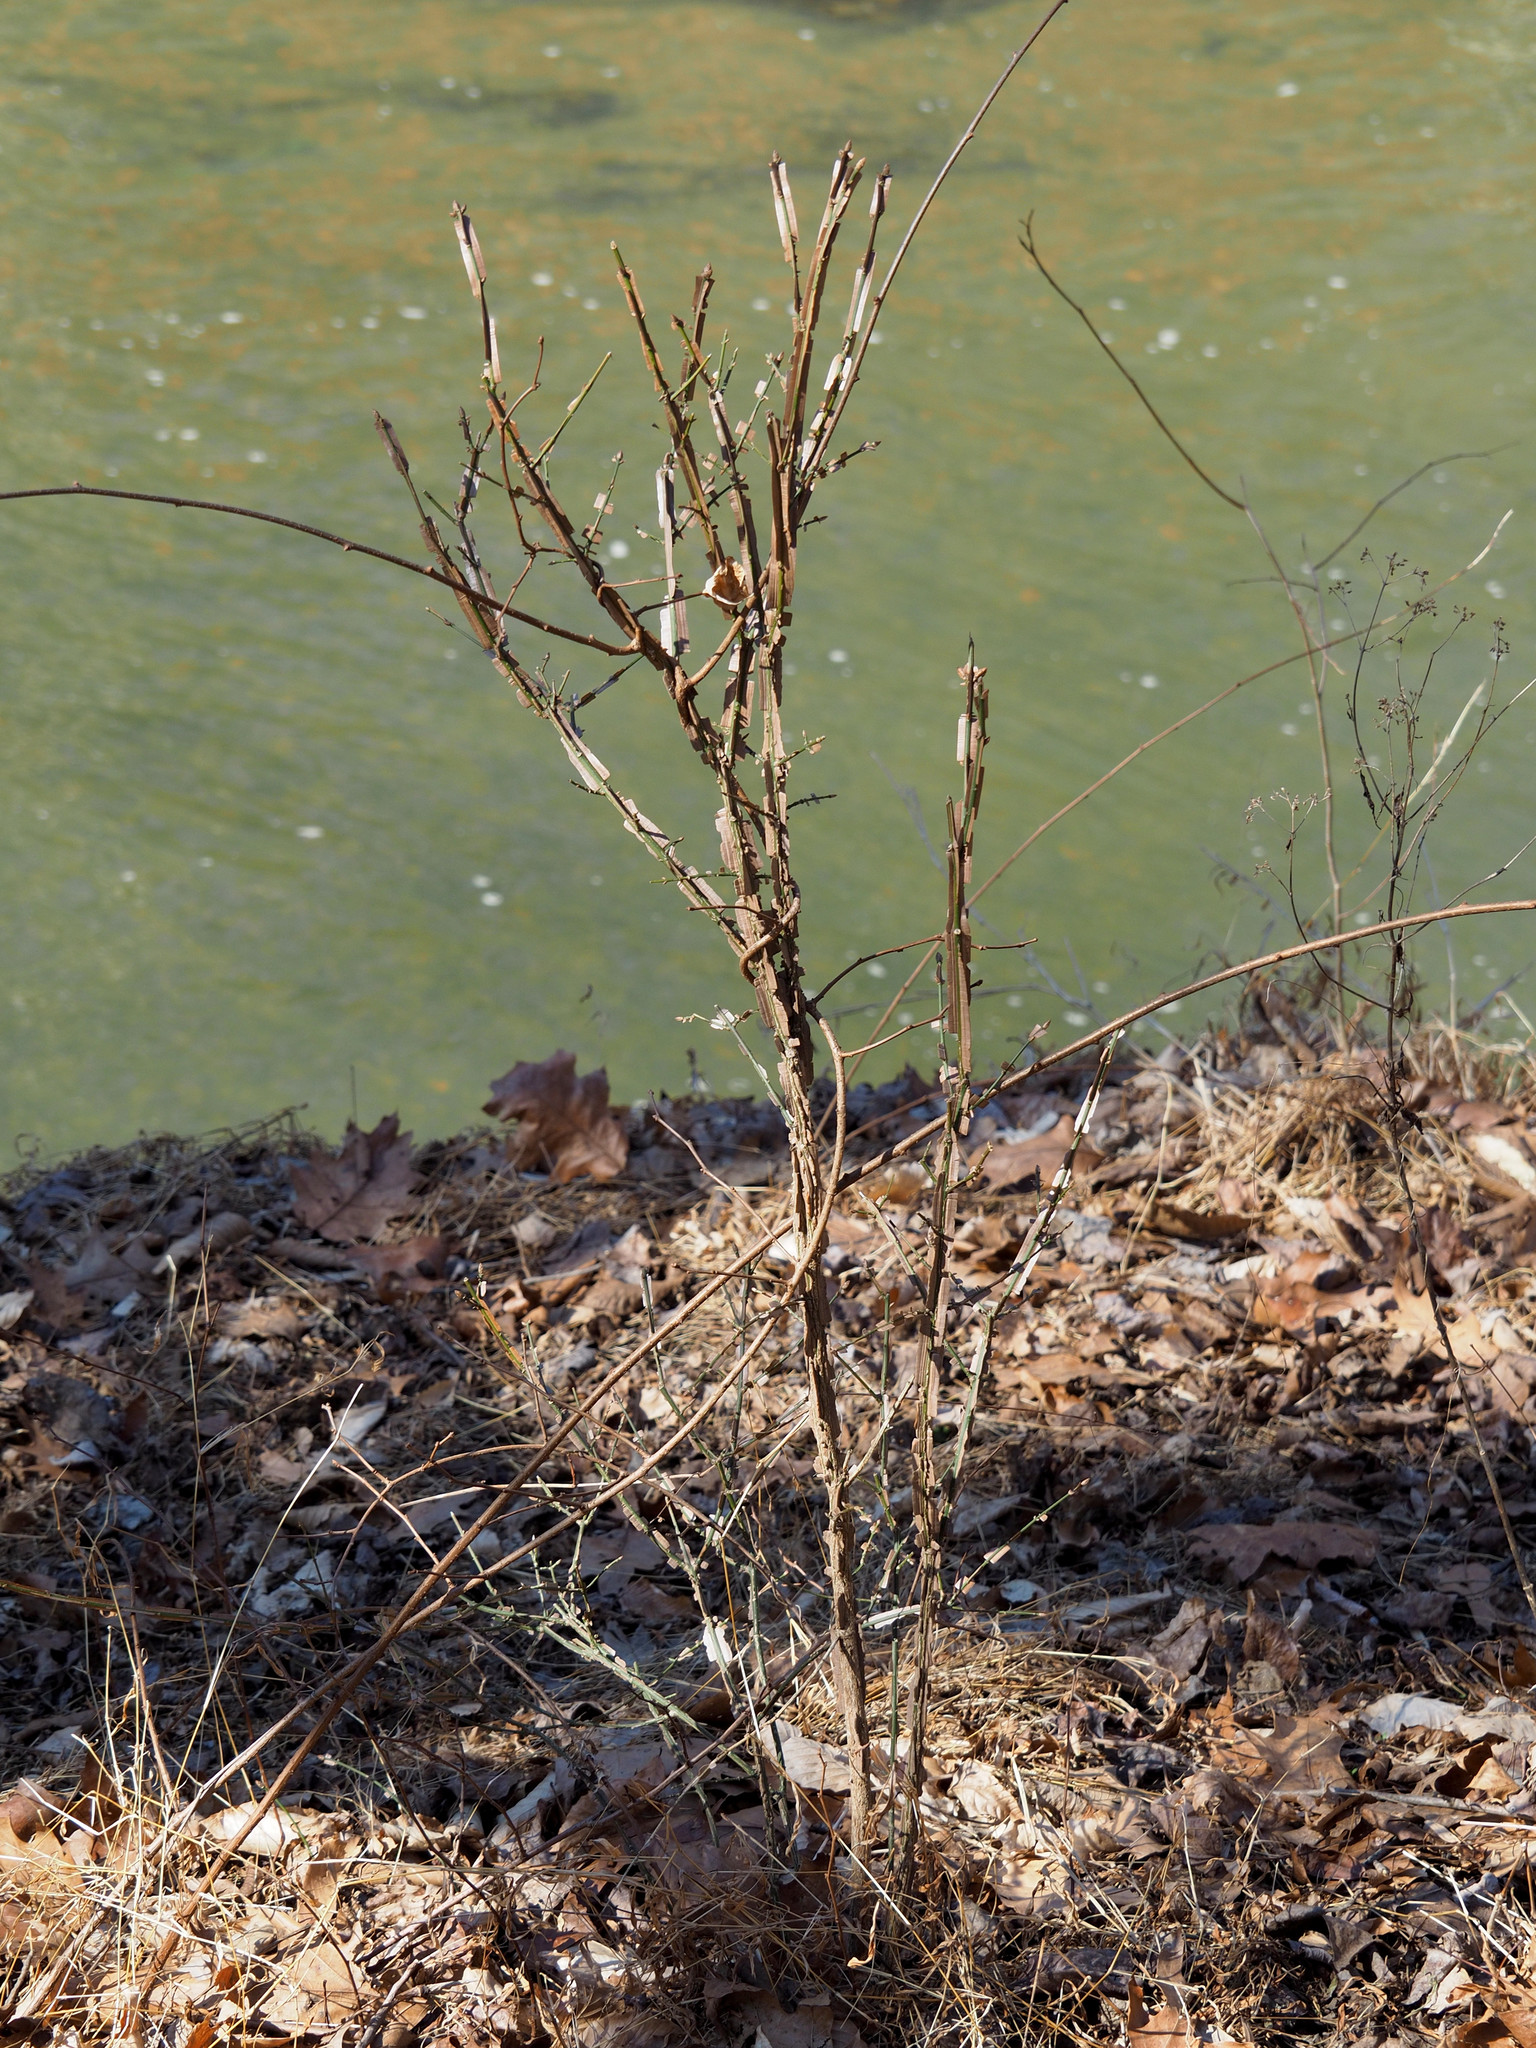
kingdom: Plantae
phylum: Tracheophyta
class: Magnoliopsida
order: Celastrales
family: Celastraceae
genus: Euonymus
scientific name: Euonymus alatus
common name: Winged euonymus
